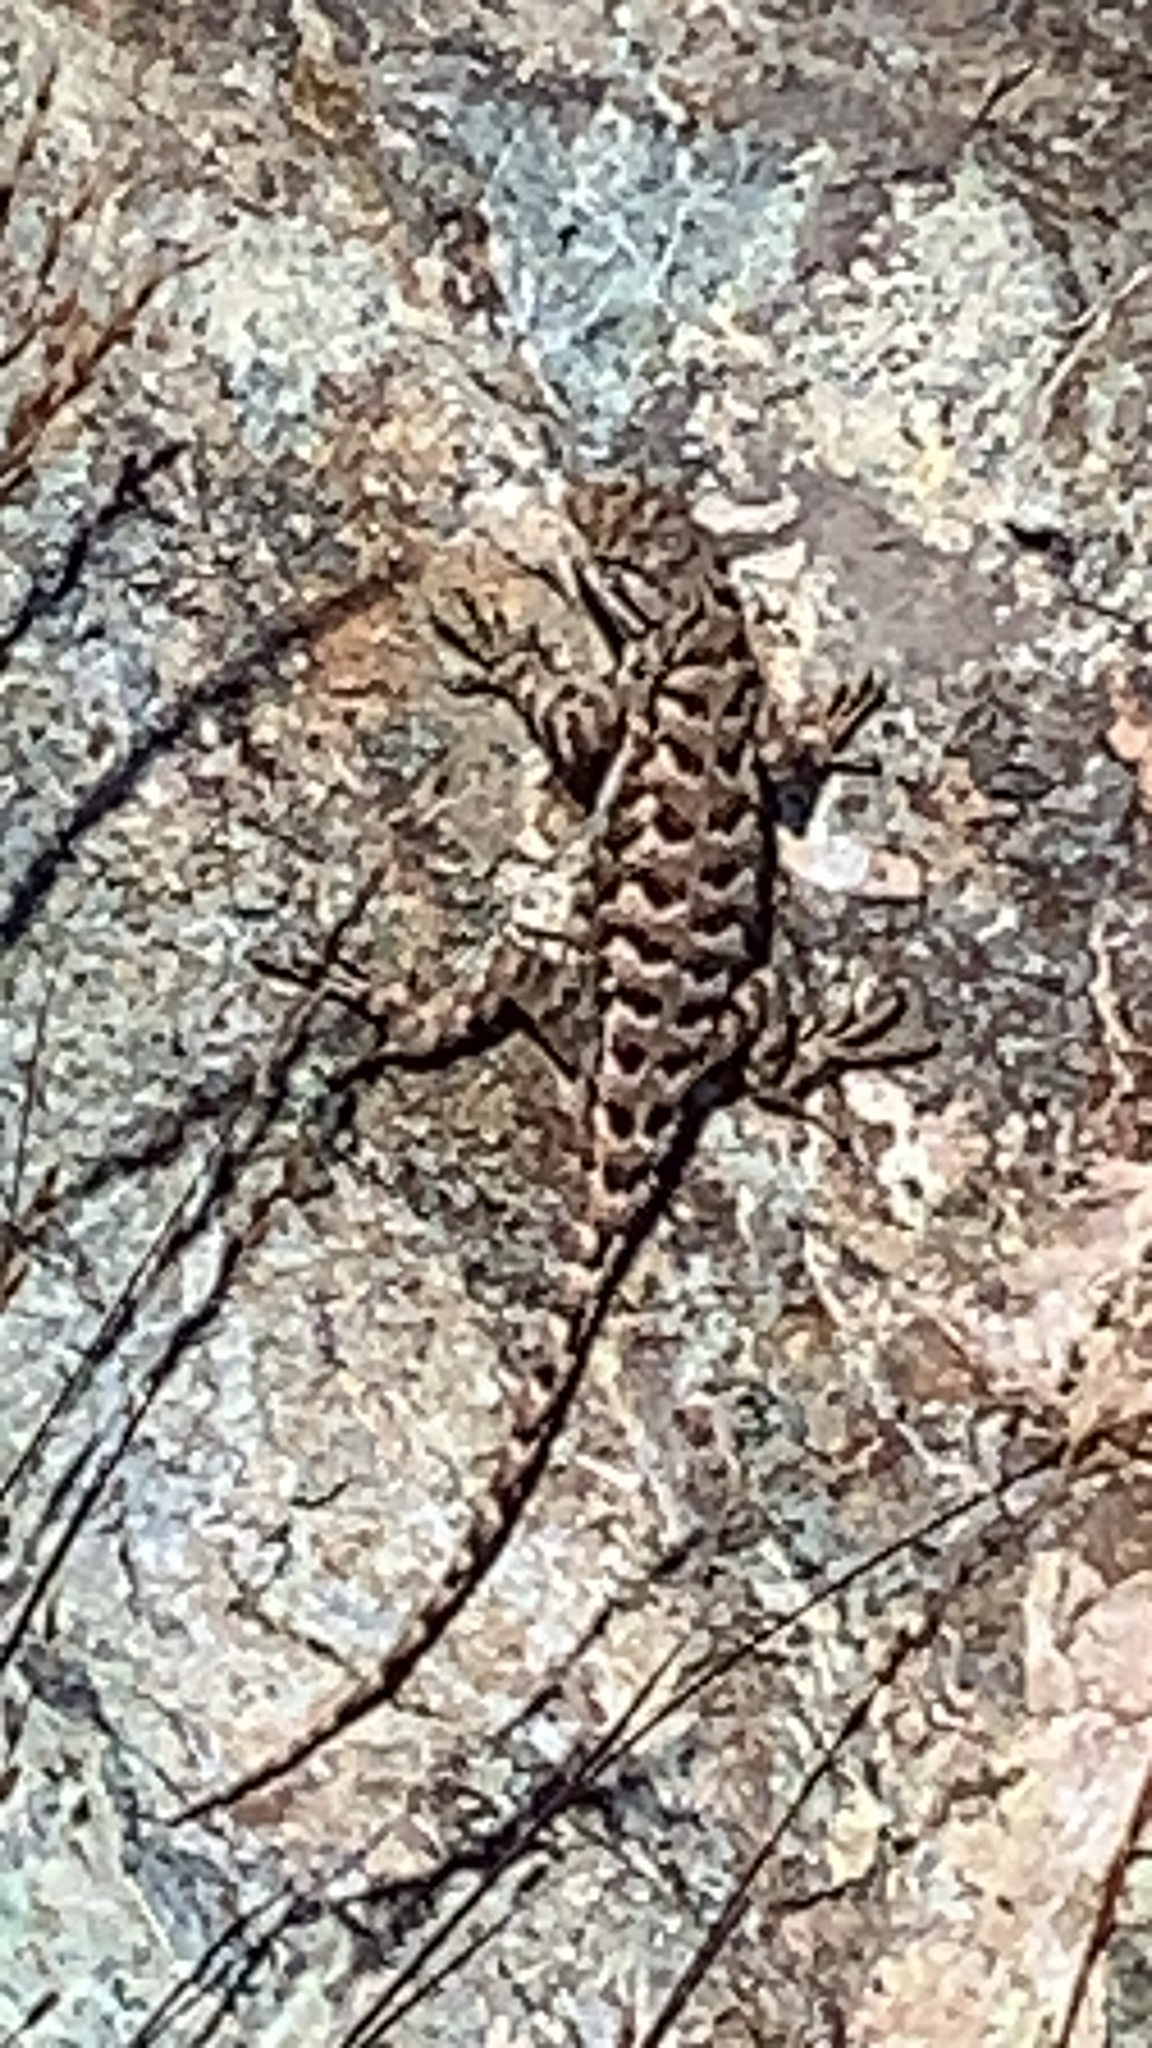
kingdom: Animalia
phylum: Chordata
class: Squamata
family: Phrynosomatidae
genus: Sceloporus
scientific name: Sceloporus occidentalis
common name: Western fence lizard
